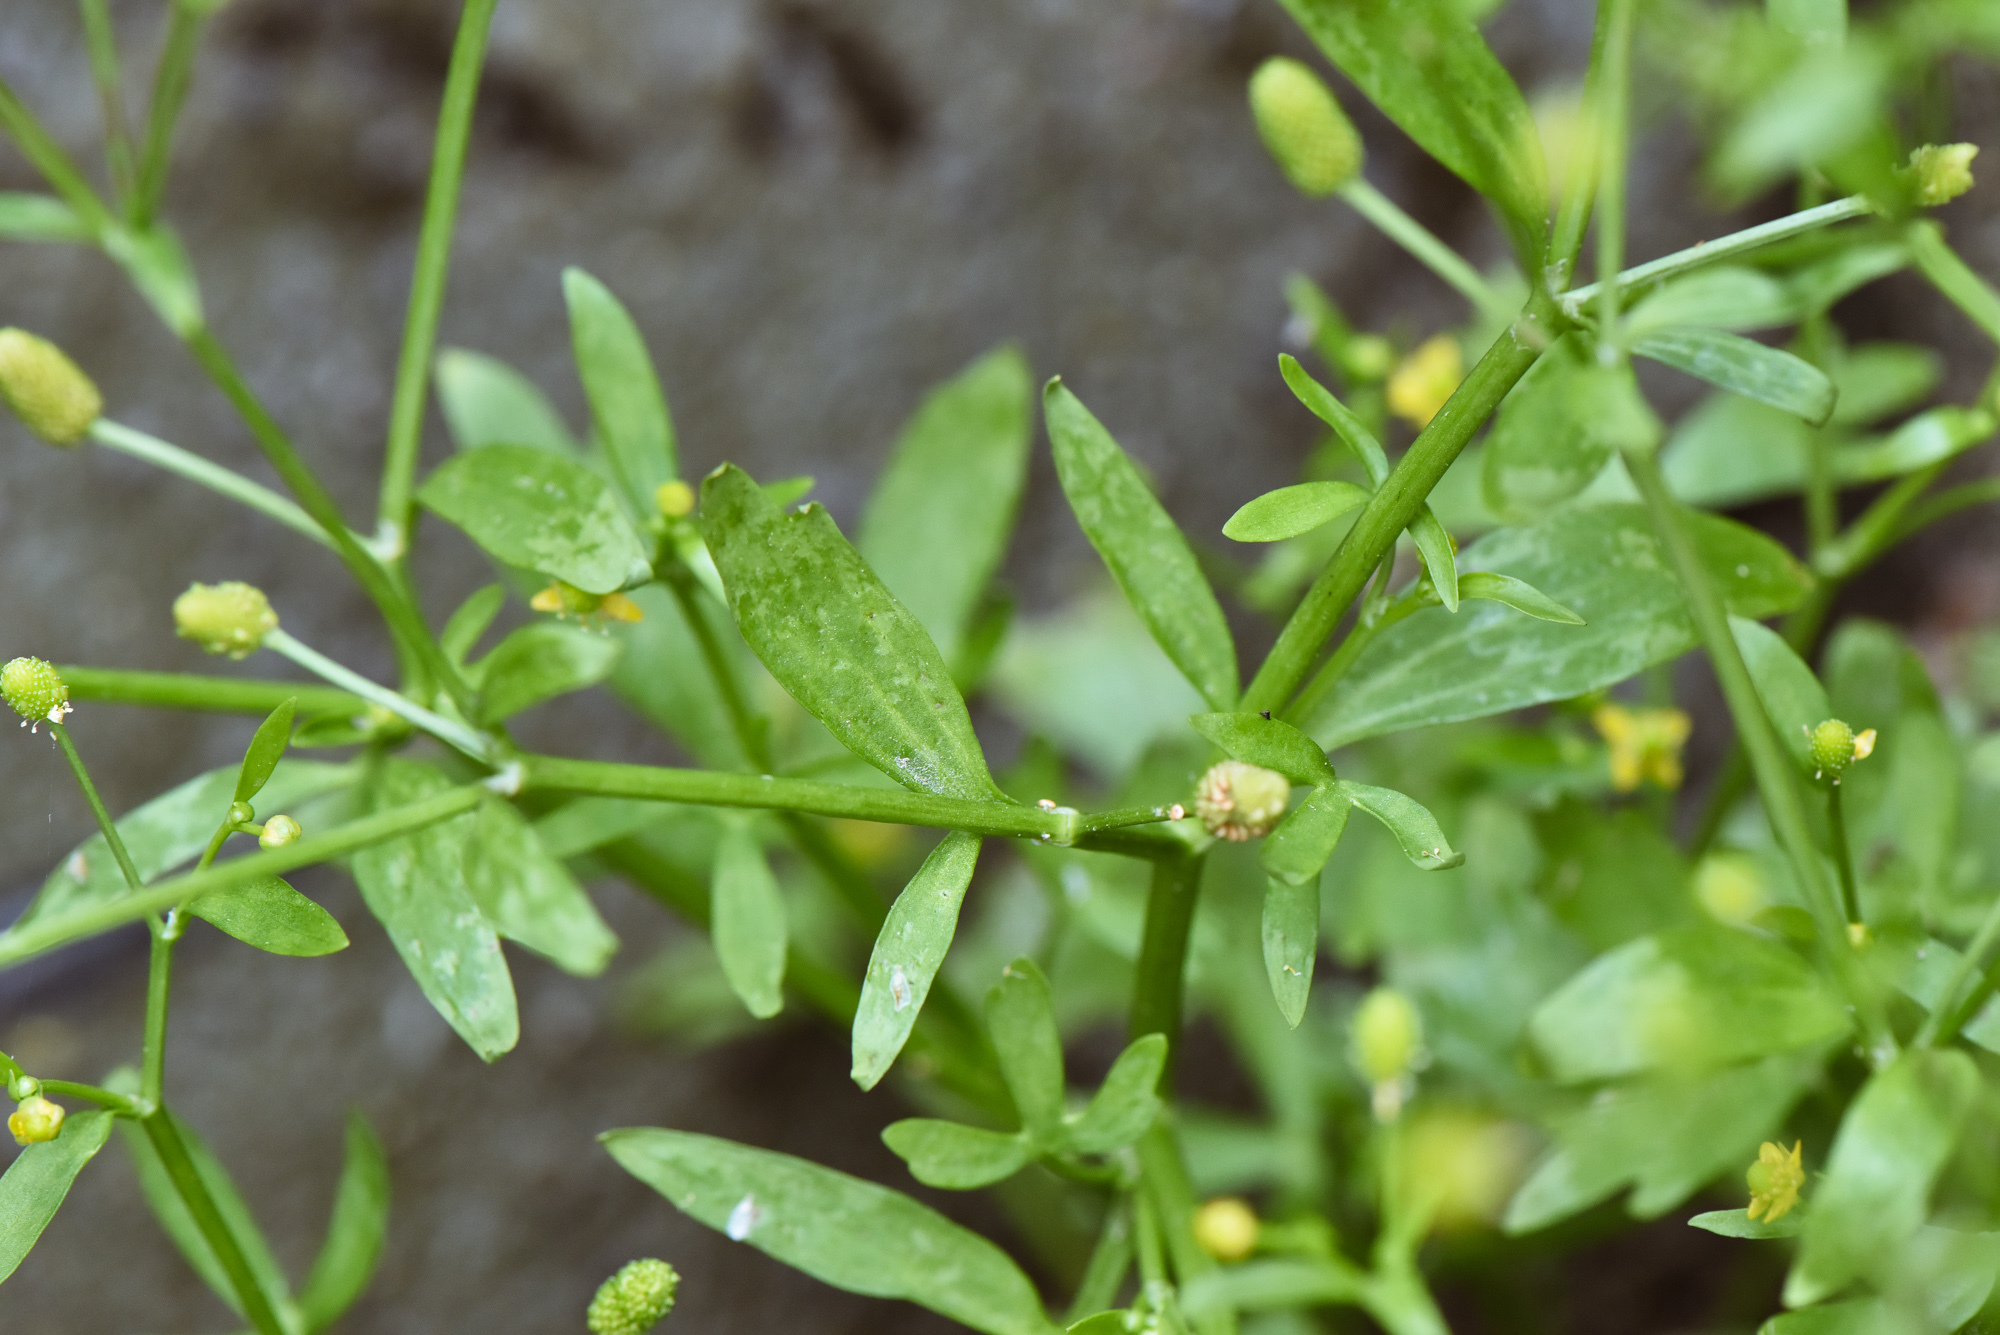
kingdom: Plantae
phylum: Tracheophyta
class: Magnoliopsida
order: Ranunculales
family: Ranunculaceae
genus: Ranunculus
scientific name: Ranunculus sceleratus
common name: Celery-leaved buttercup
